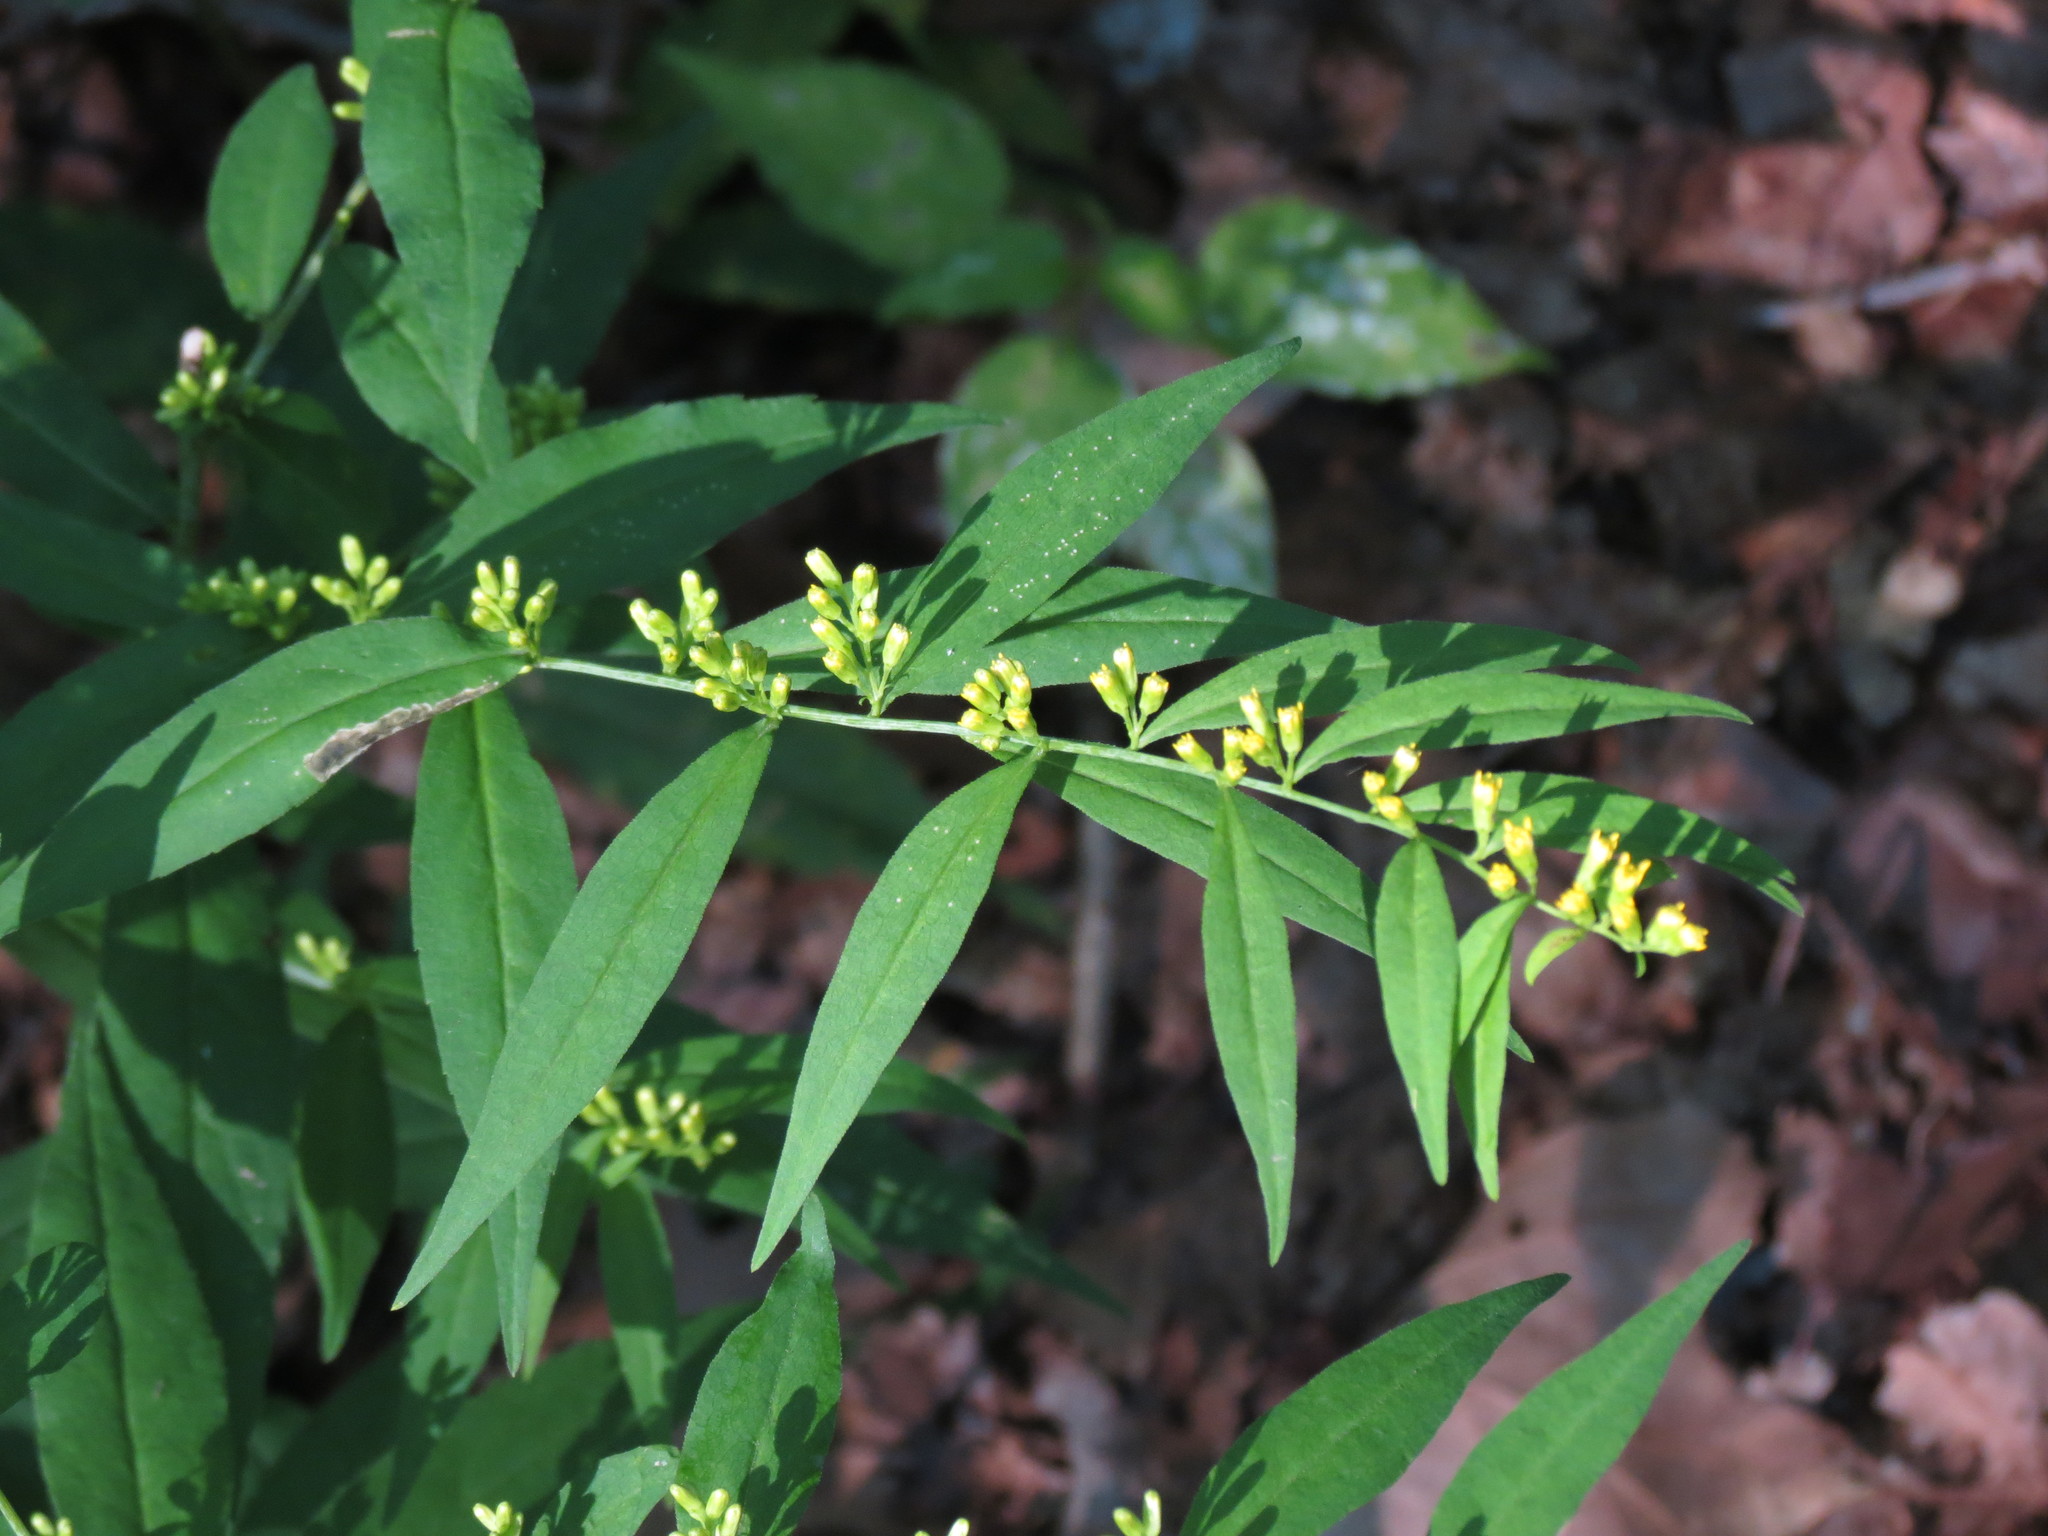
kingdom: Plantae
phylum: Tracheophyta
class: Magnoliopsida
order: Asterales
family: Asteraceae
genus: Solidago
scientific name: Solidago caesia
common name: Woodland goldenrod
